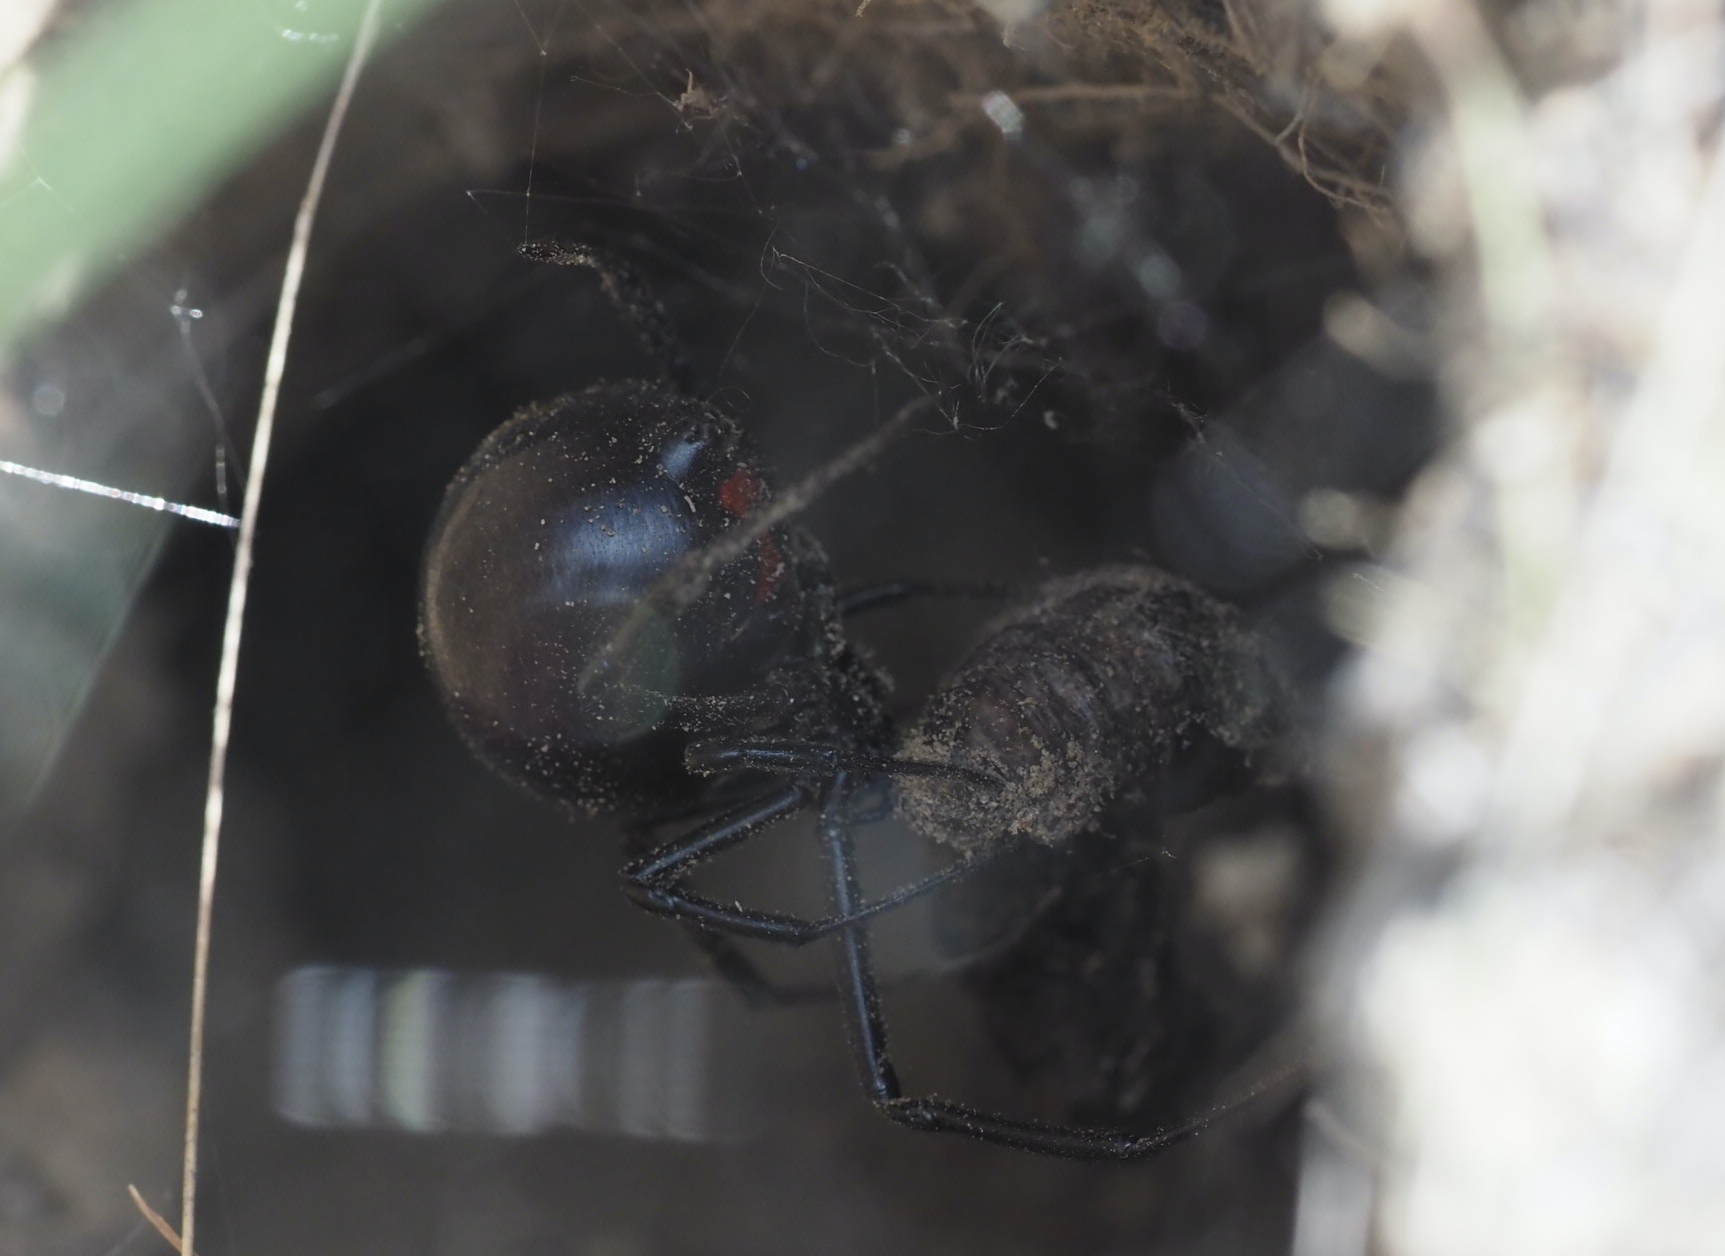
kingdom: Animalia
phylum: Arthropoda
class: Arachnida
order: Araneae
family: Theridiidae
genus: Latrodectus
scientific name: Latrodectus hesperus
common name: Western black widow
